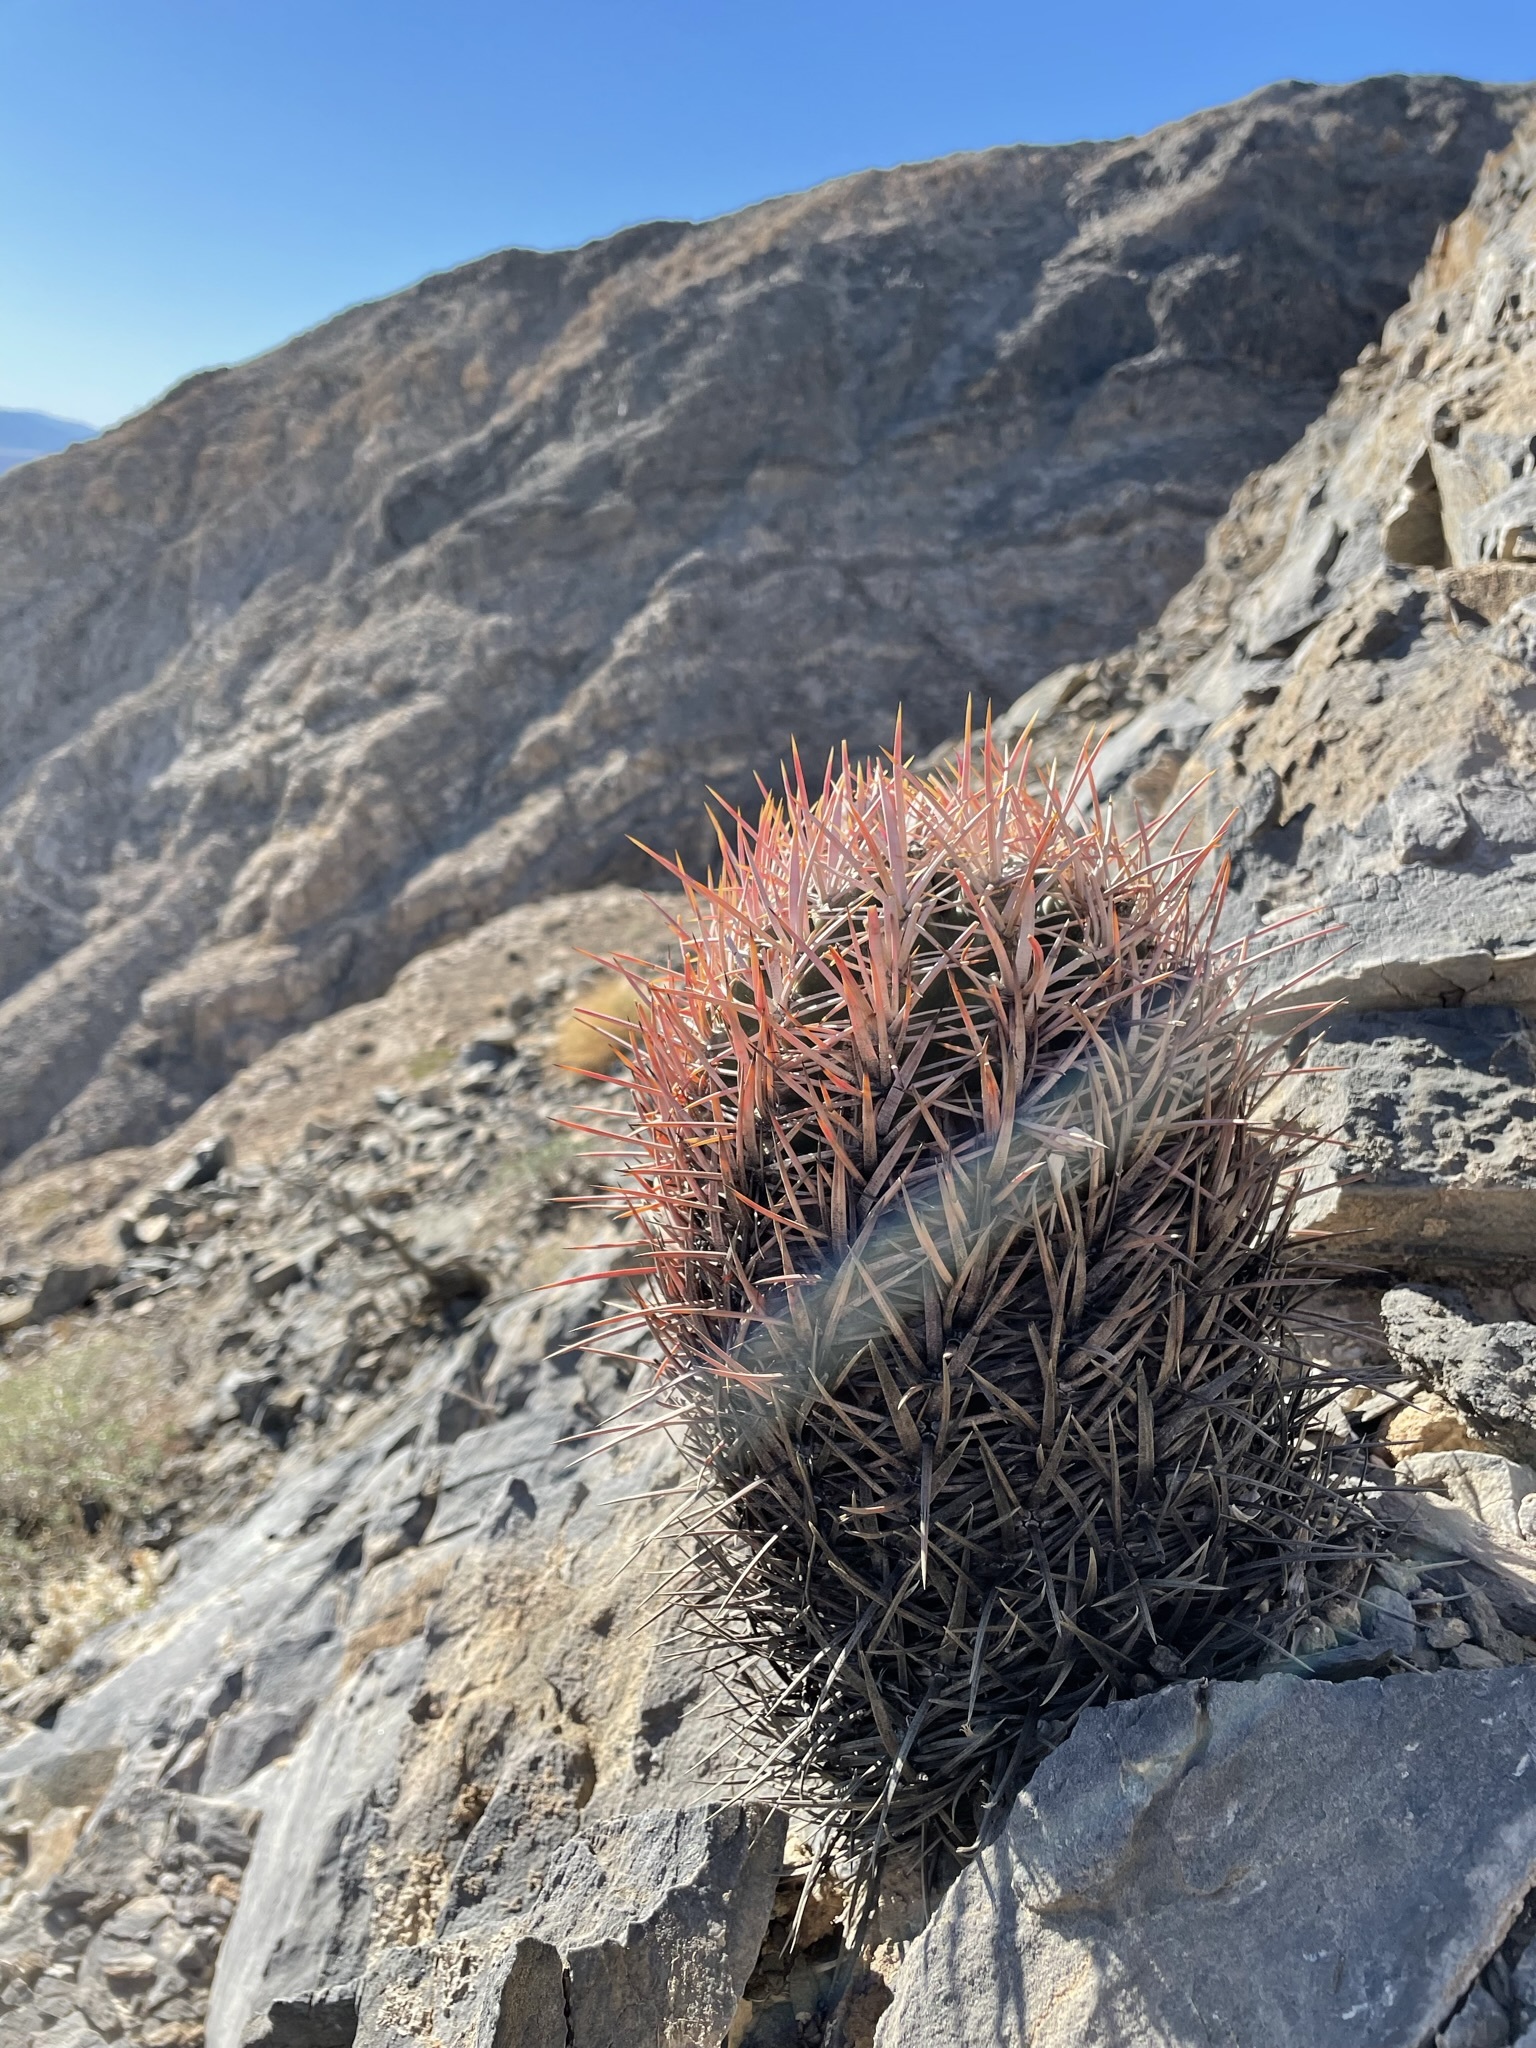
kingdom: Plantae
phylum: Tracheophyta
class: Magnoliopsida
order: Caryophyllales
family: Cactaceae
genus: Echinocactus
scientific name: Echinocactus polycephalus
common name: Cottontop cactus
